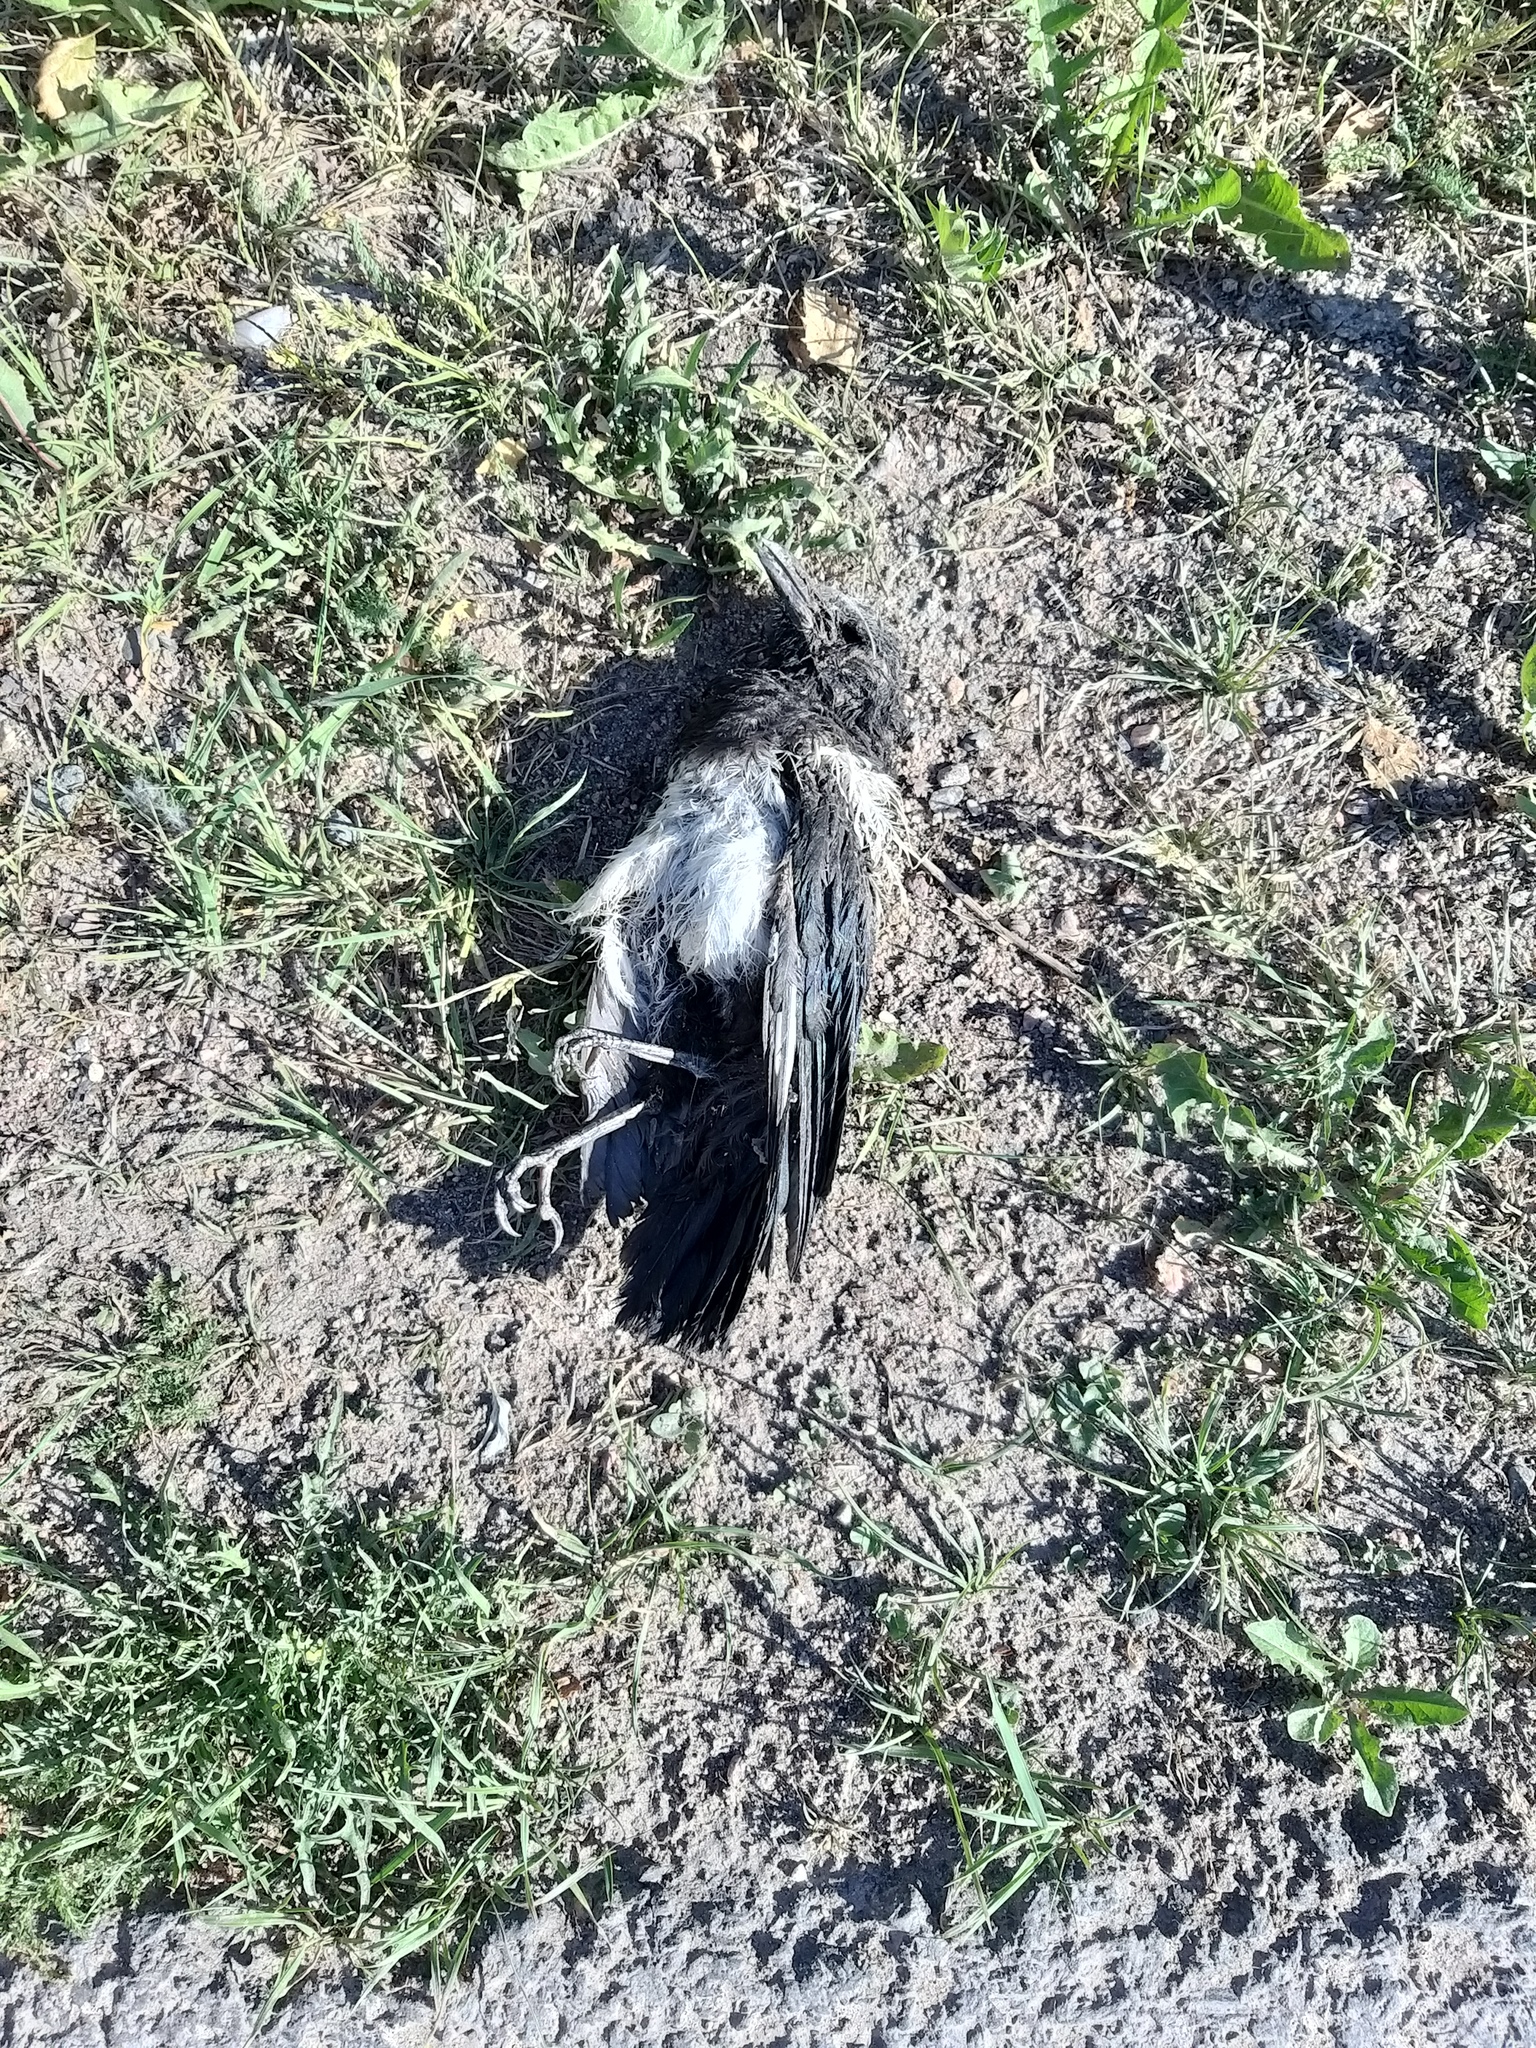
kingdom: Animalia
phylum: Chordata
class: Aves
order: Passeriformes
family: Corvidae
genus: Pica
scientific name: Pica pica
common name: Eurasian magpie
